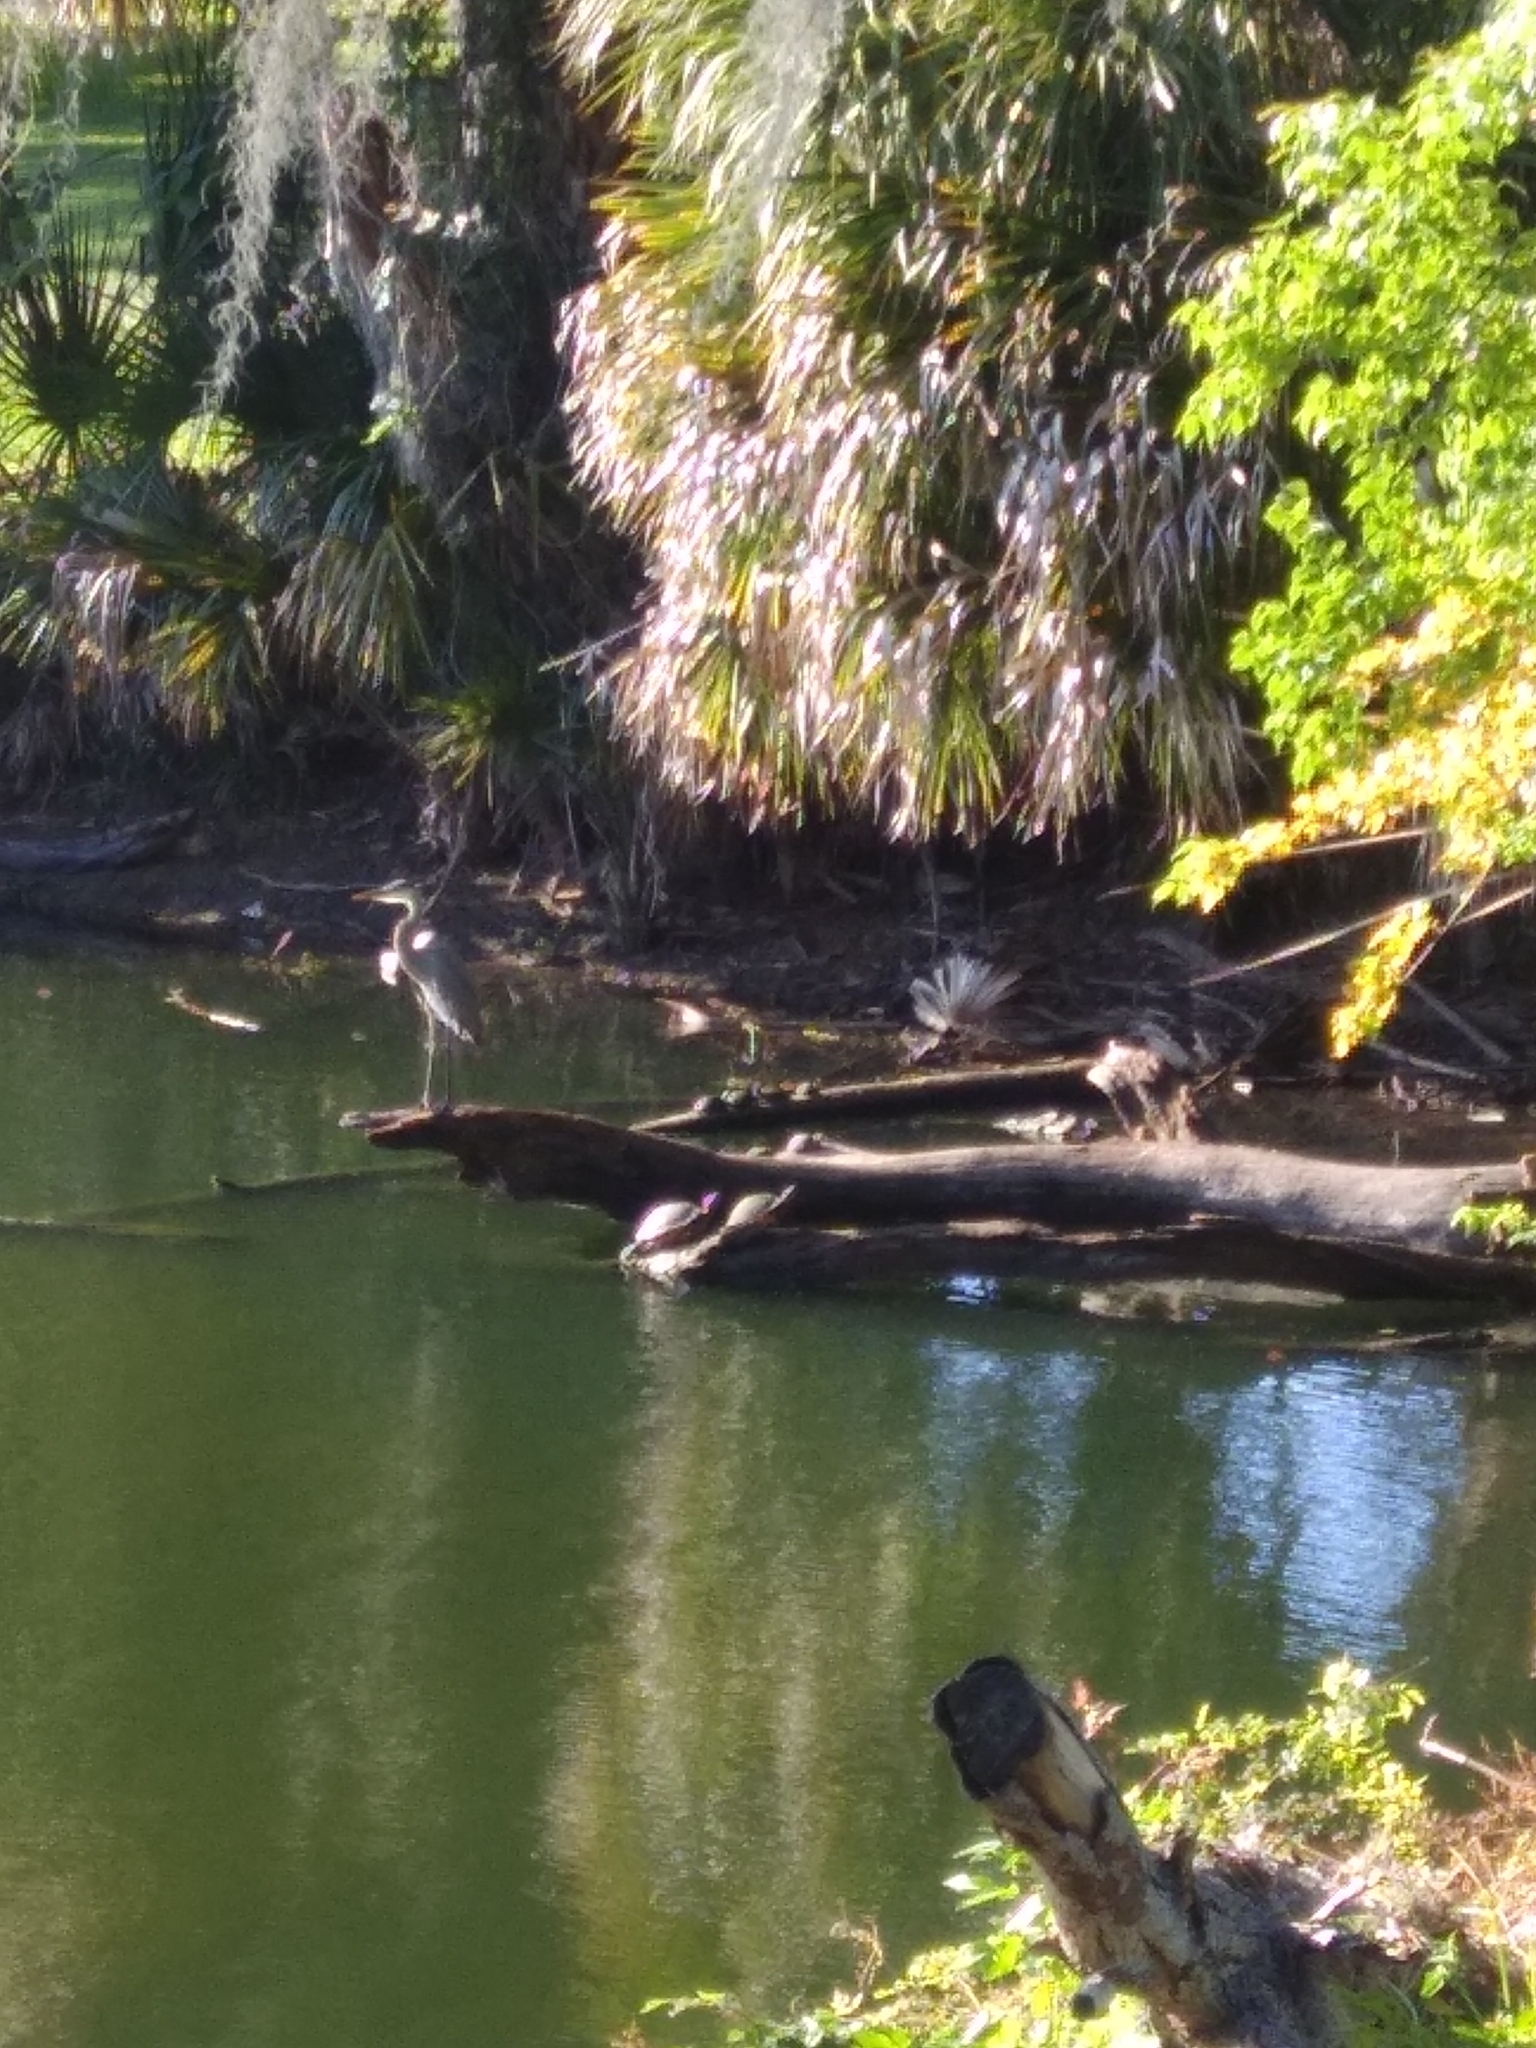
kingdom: Animalia
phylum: Chordata
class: Aves
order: Pelecaniformes
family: Ardeidae
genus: Ardea
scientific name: Ardea herodias
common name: Great blue heron
